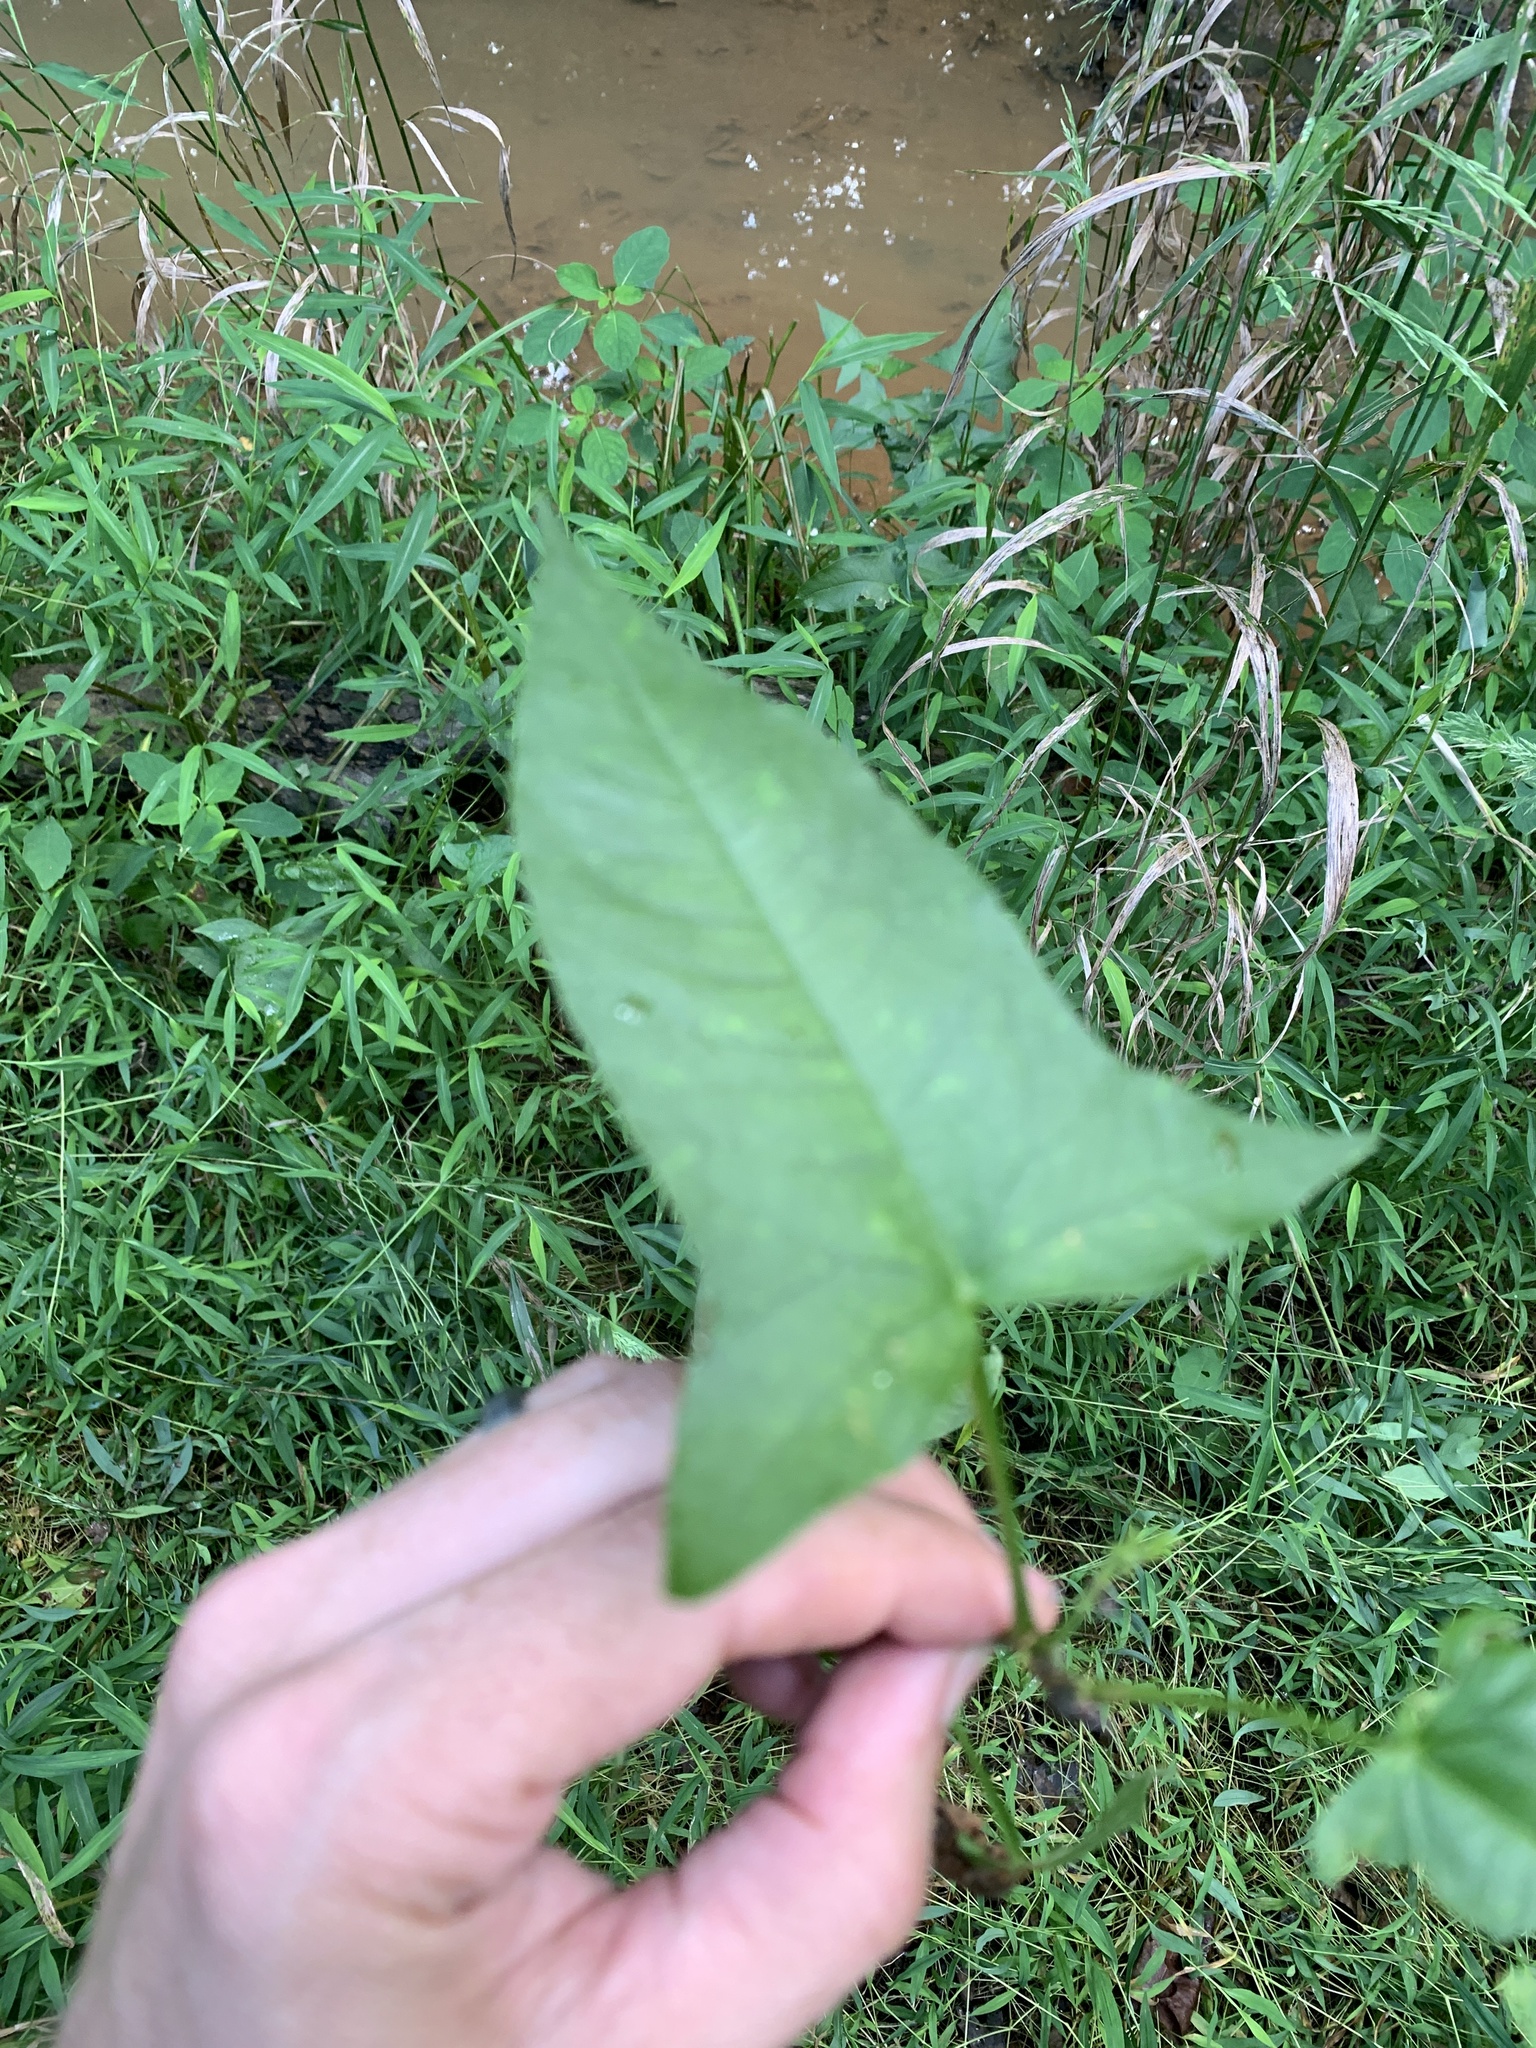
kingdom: Plantae
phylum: Tracheophyta
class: Magnoliopsida
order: Caryophyllales
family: Polygonaceae
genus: Persicaria
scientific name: Persicaria arifolia
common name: Halberd-leaved tear-thumb
